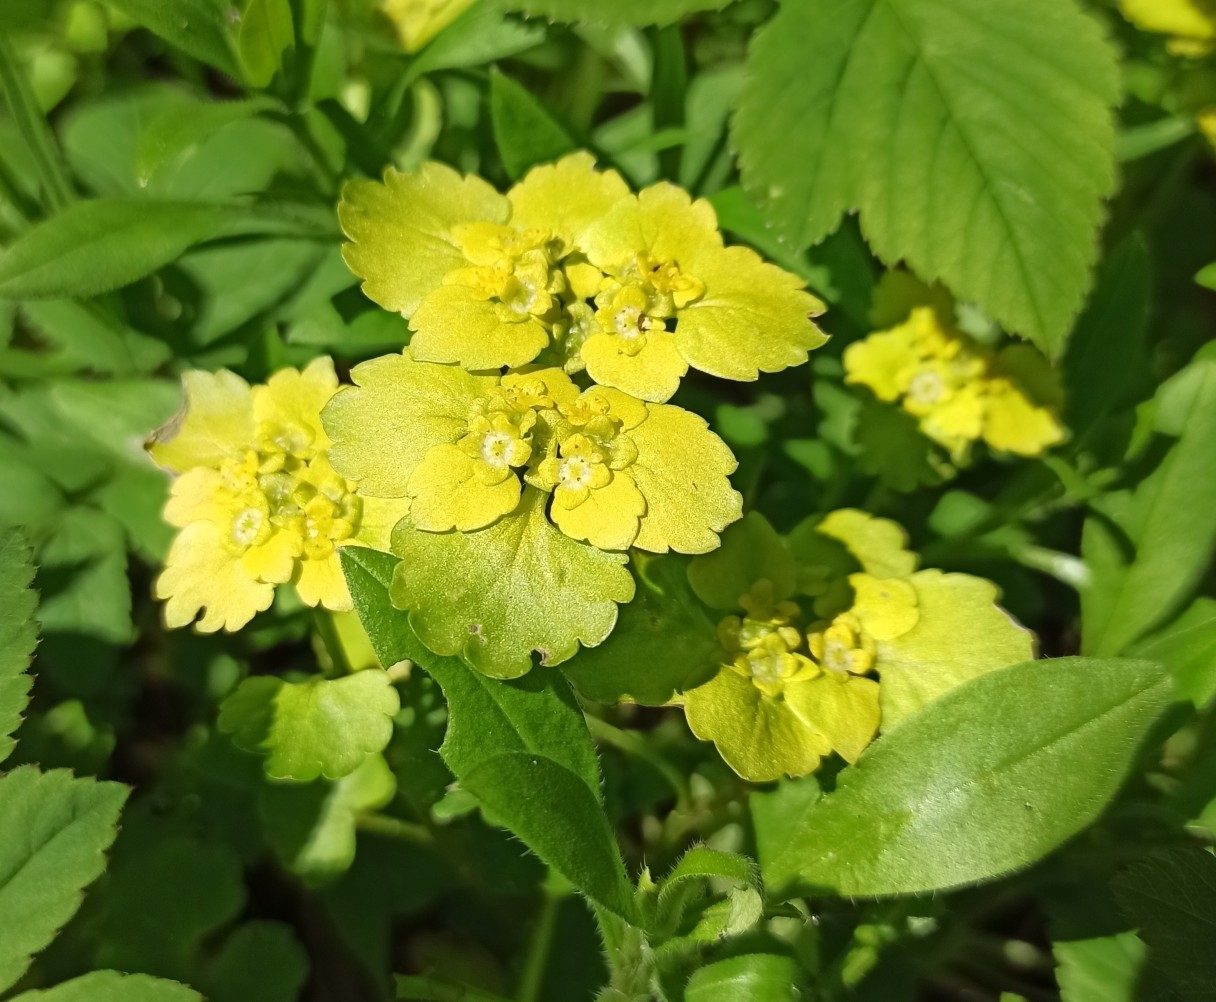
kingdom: Plantae
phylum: Tracheophyta
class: Magnoliopsida
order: Saxifragales
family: Saxifragaceae
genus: Chrysosplenium
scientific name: Chrysosplenium alternifolium
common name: Alternate-leaved golden-saxifrage
